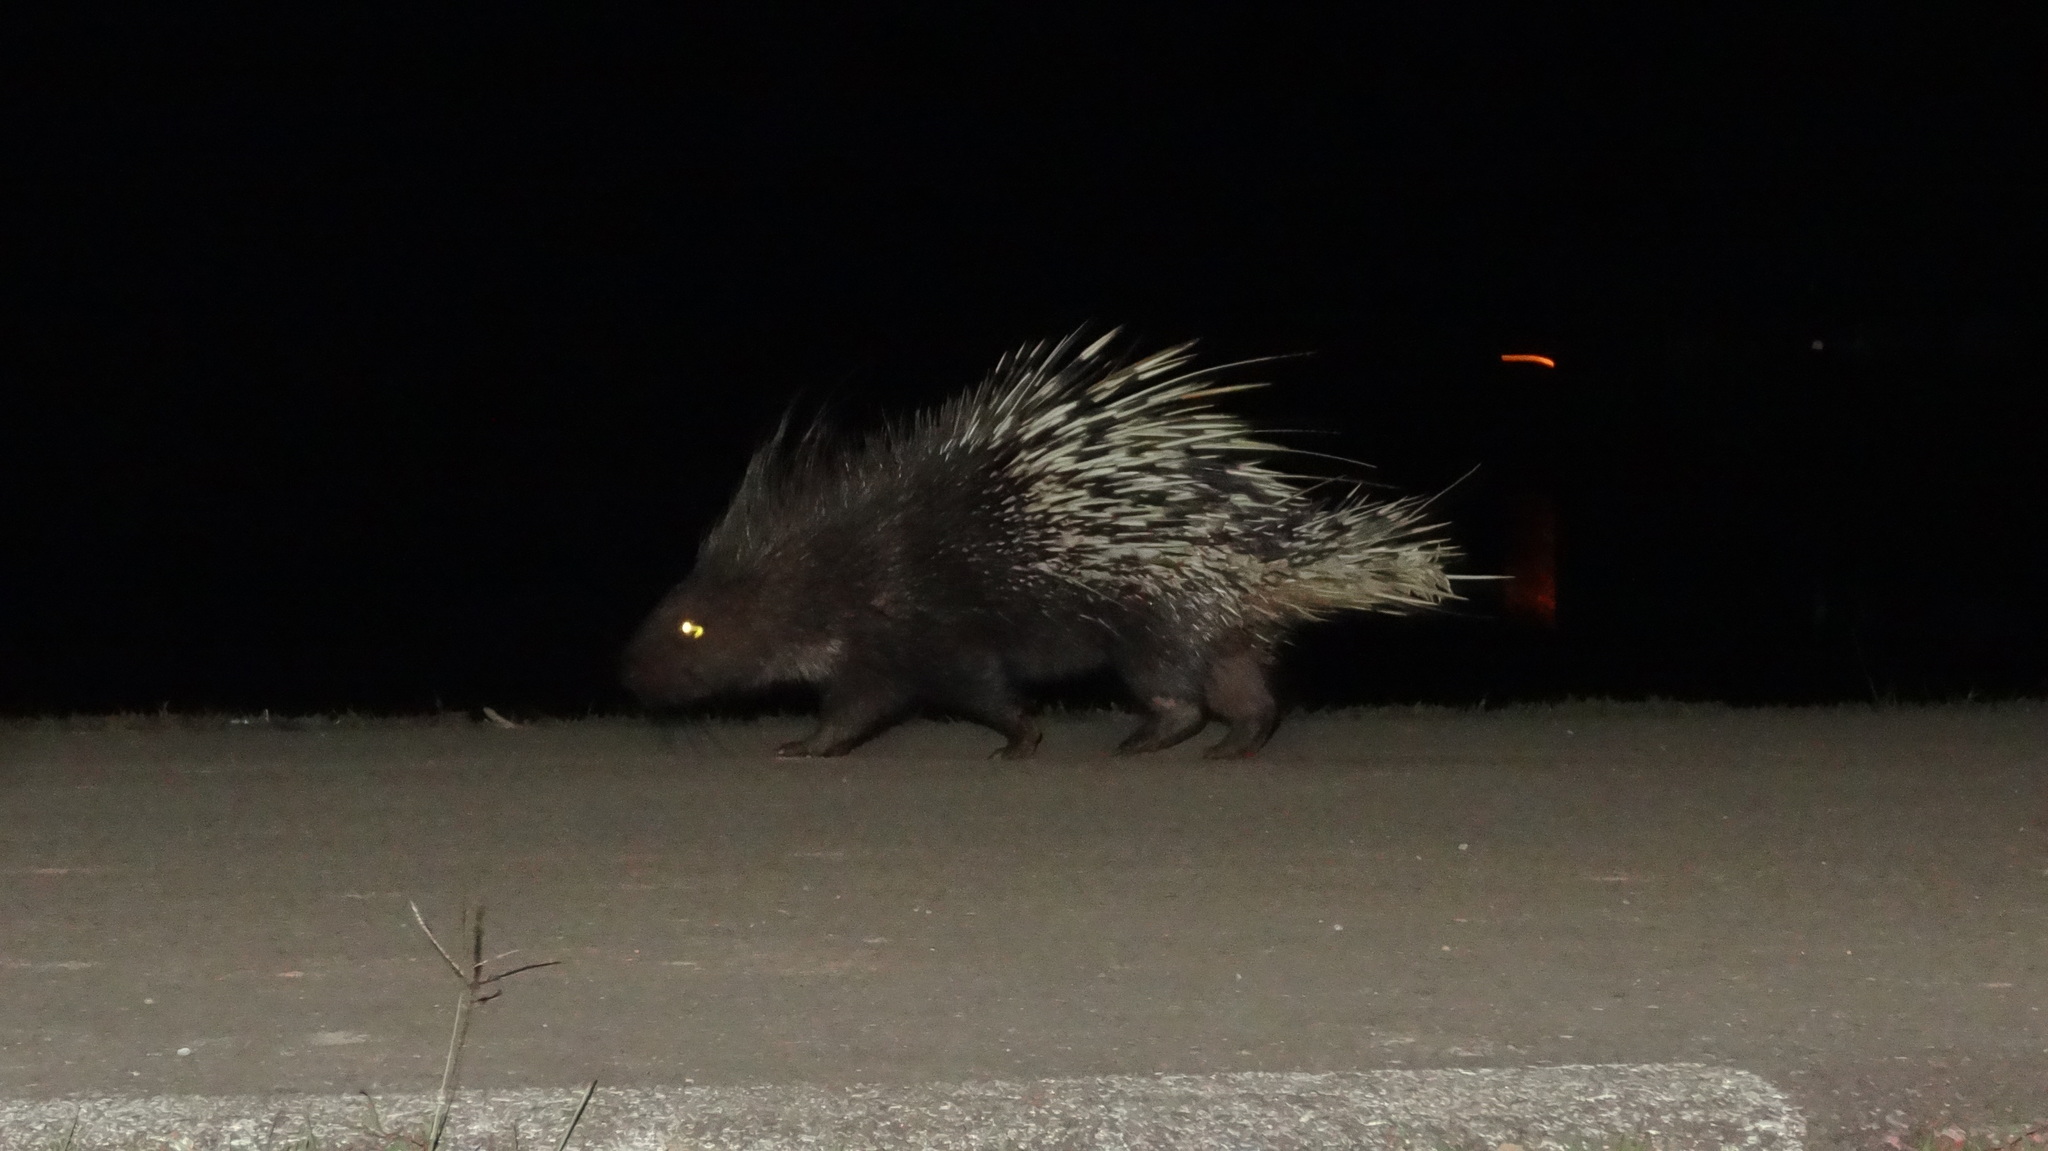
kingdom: Animalia
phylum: Chordata
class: Mammalia
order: Rodentia
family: Hystricidae
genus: Hystrix
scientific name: Hystrix brachyura
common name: Malayan porcupine
